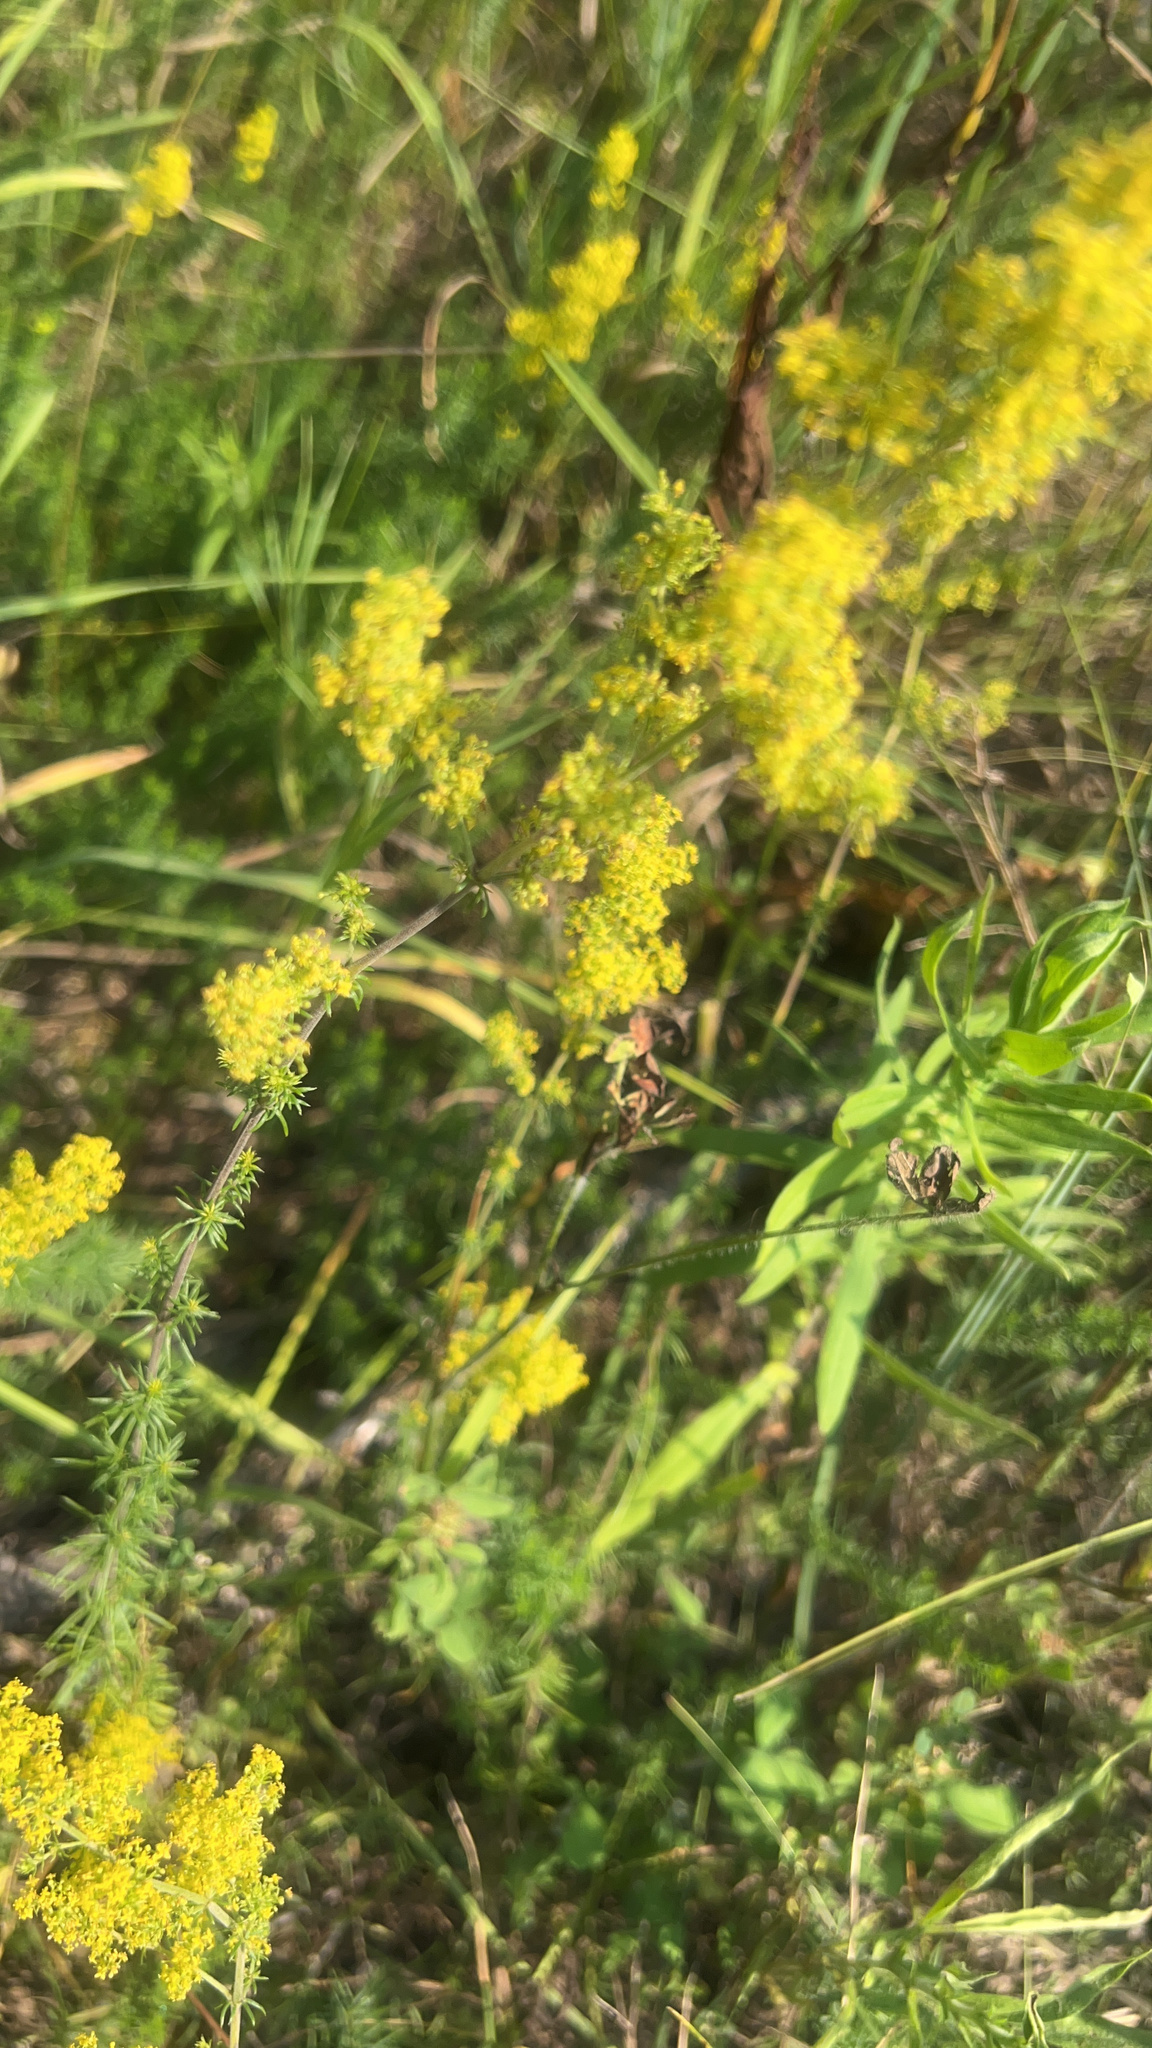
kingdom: Plantae
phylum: Tracheophyta
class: Magnoliopsida
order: Gentianales
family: Rubiaceae
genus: Galium
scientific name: Galium verum
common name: Lady's bedstraw
